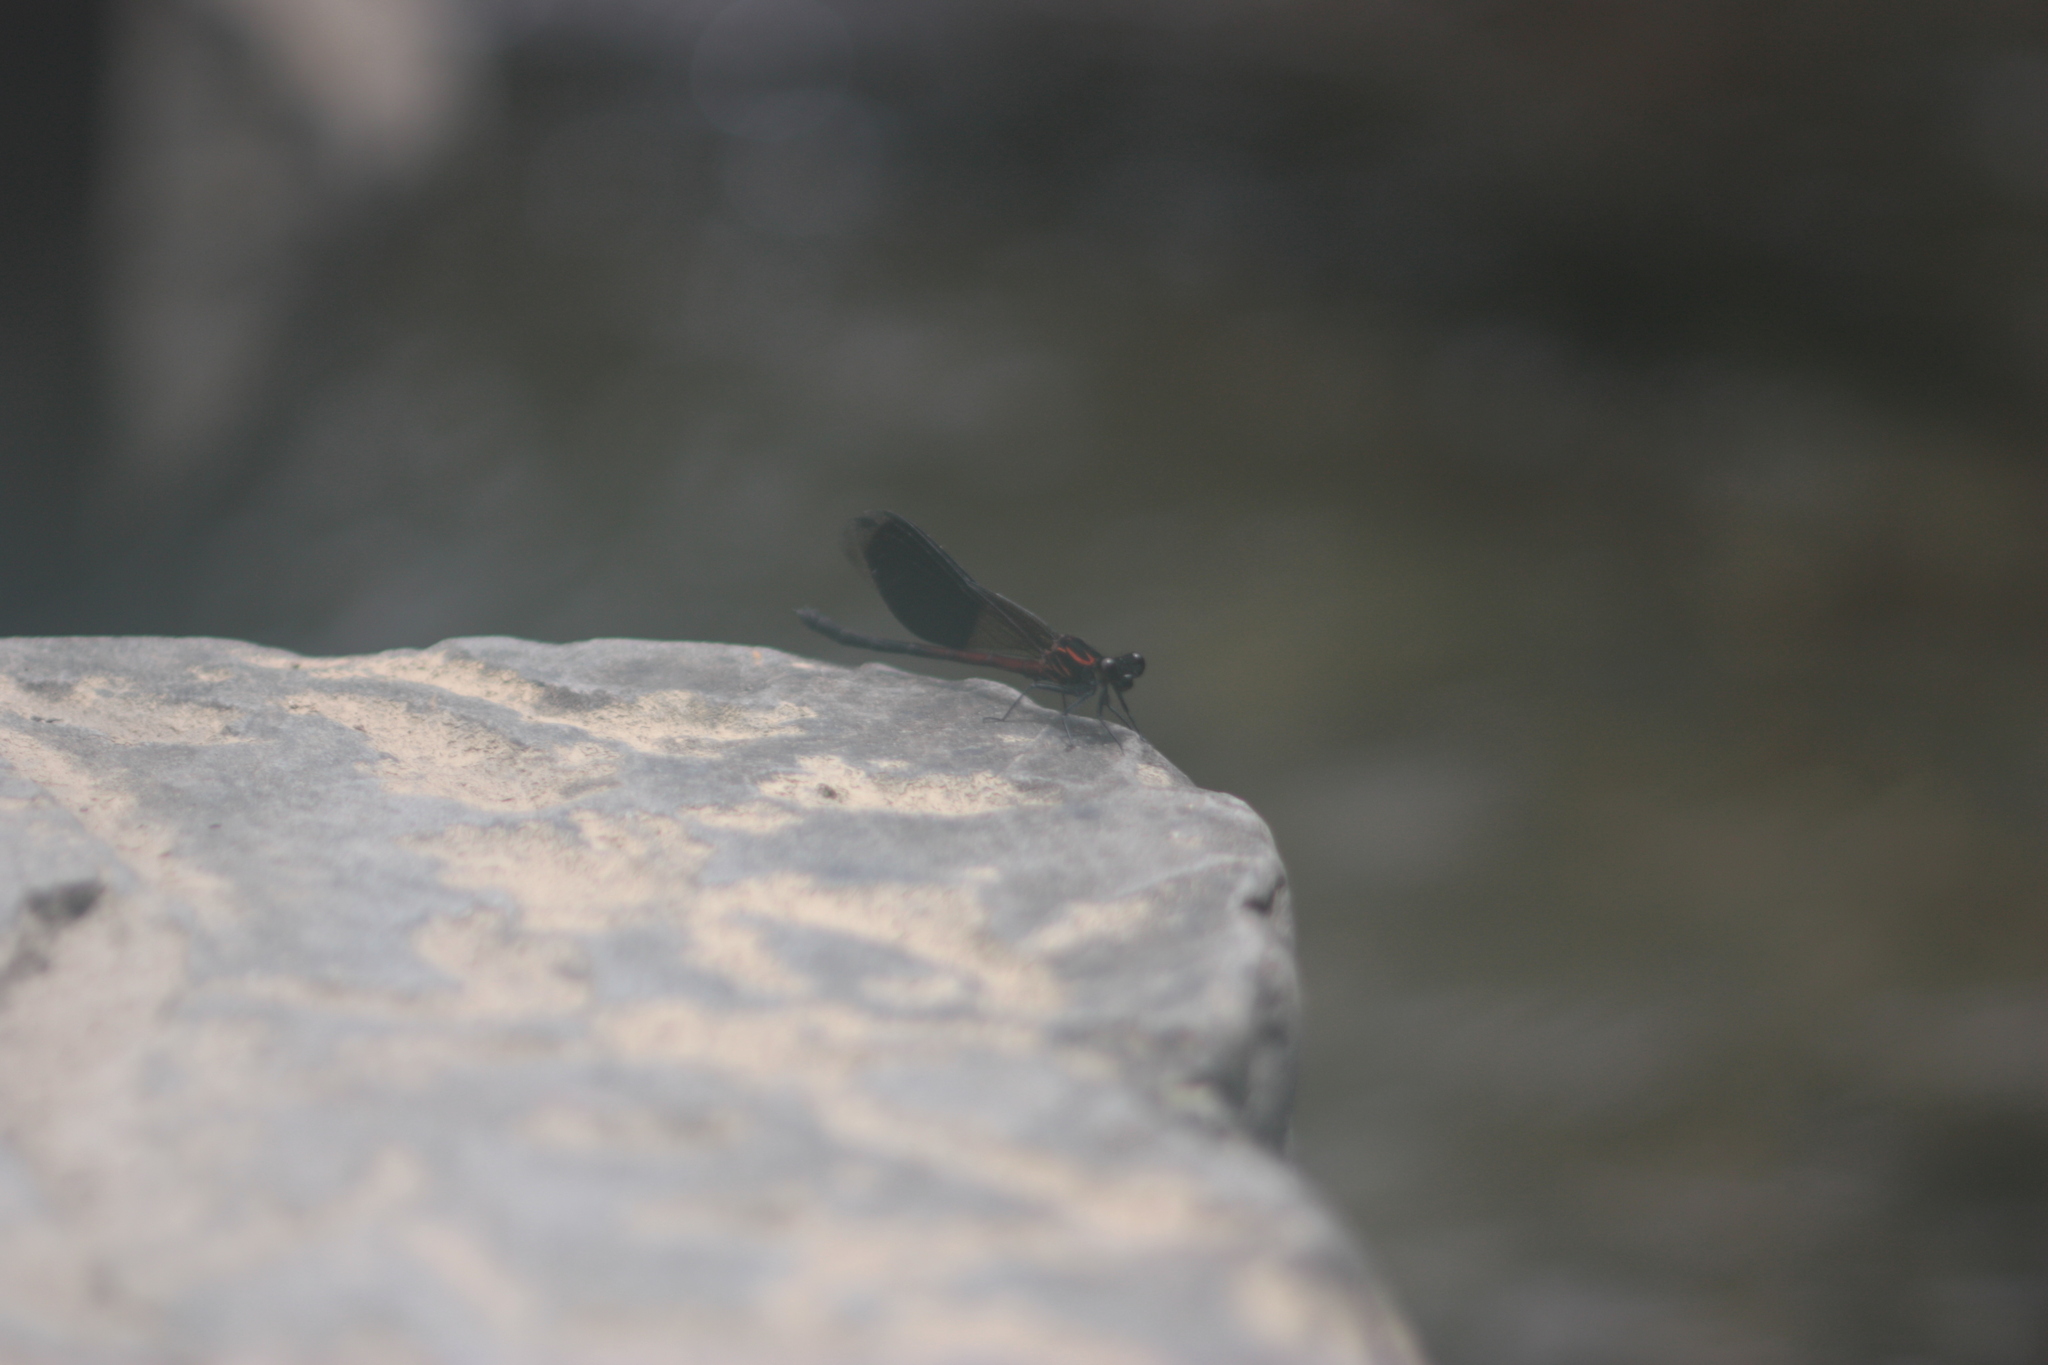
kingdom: Animalia
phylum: Arthropoda
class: Insecta
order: Odonata
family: Euphaeidae
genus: Euphaea
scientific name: Euphaea formosa
